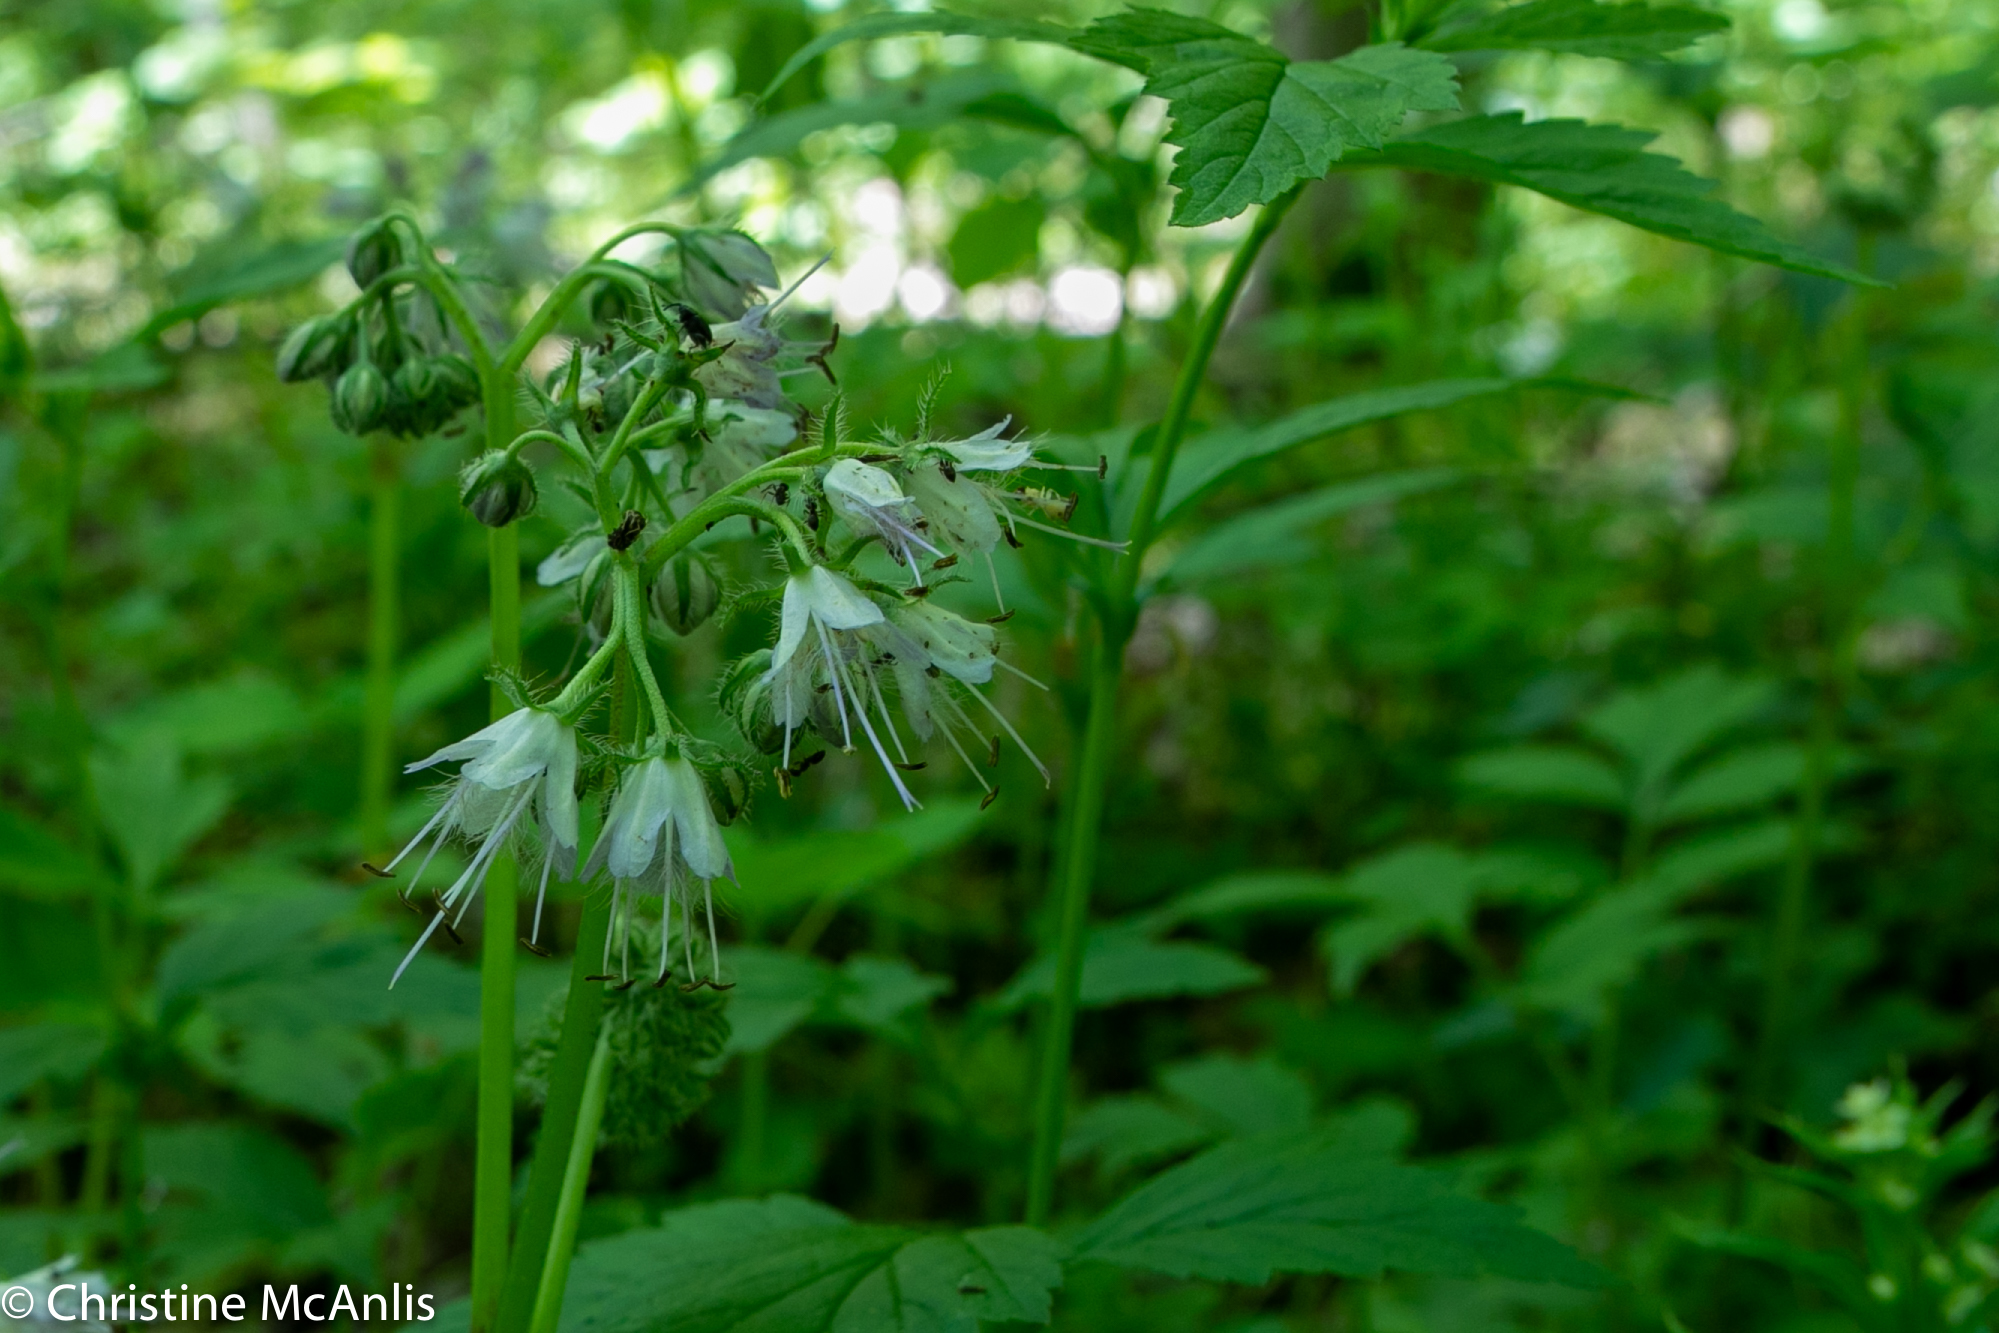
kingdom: Plantae
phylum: Tracheophyta
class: Magnoliopsida
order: Boraginales
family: Hydrophyllaceae
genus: Hydrophyllum
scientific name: Hydrophyllum virginianum
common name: Virginia waterleaf
